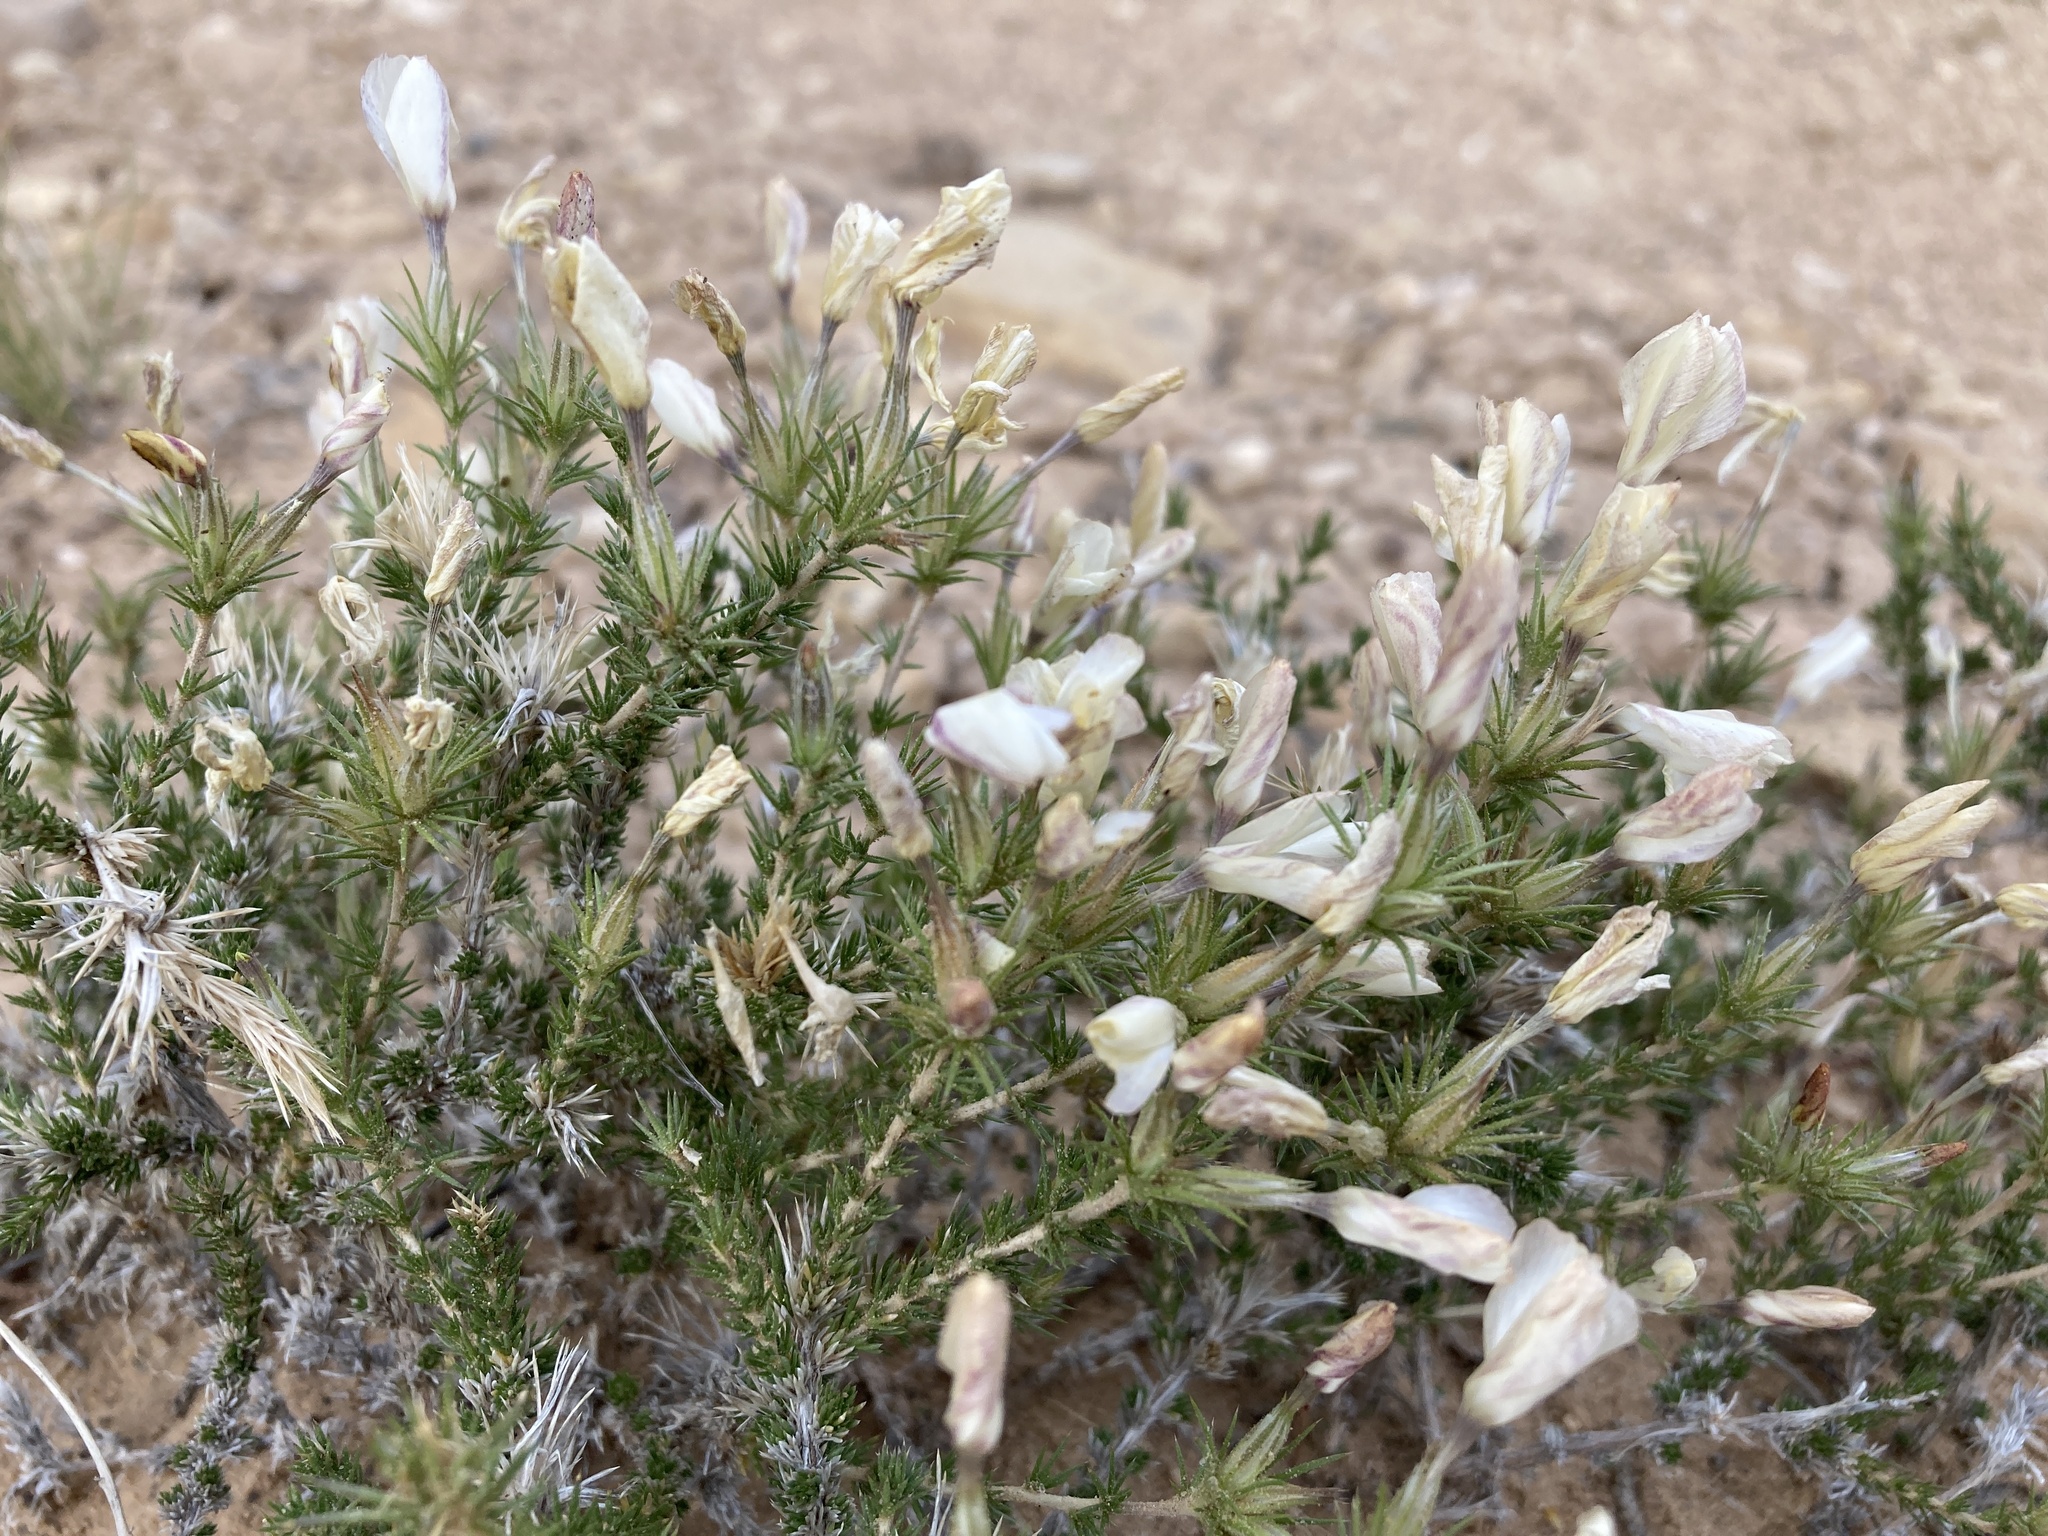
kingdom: Plantae
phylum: Tracheophyta
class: Magnoliopsida
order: Ericales
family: Polemoniaceae
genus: Linanthus
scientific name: Linanthus pungens
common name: Granite prickly phlox
